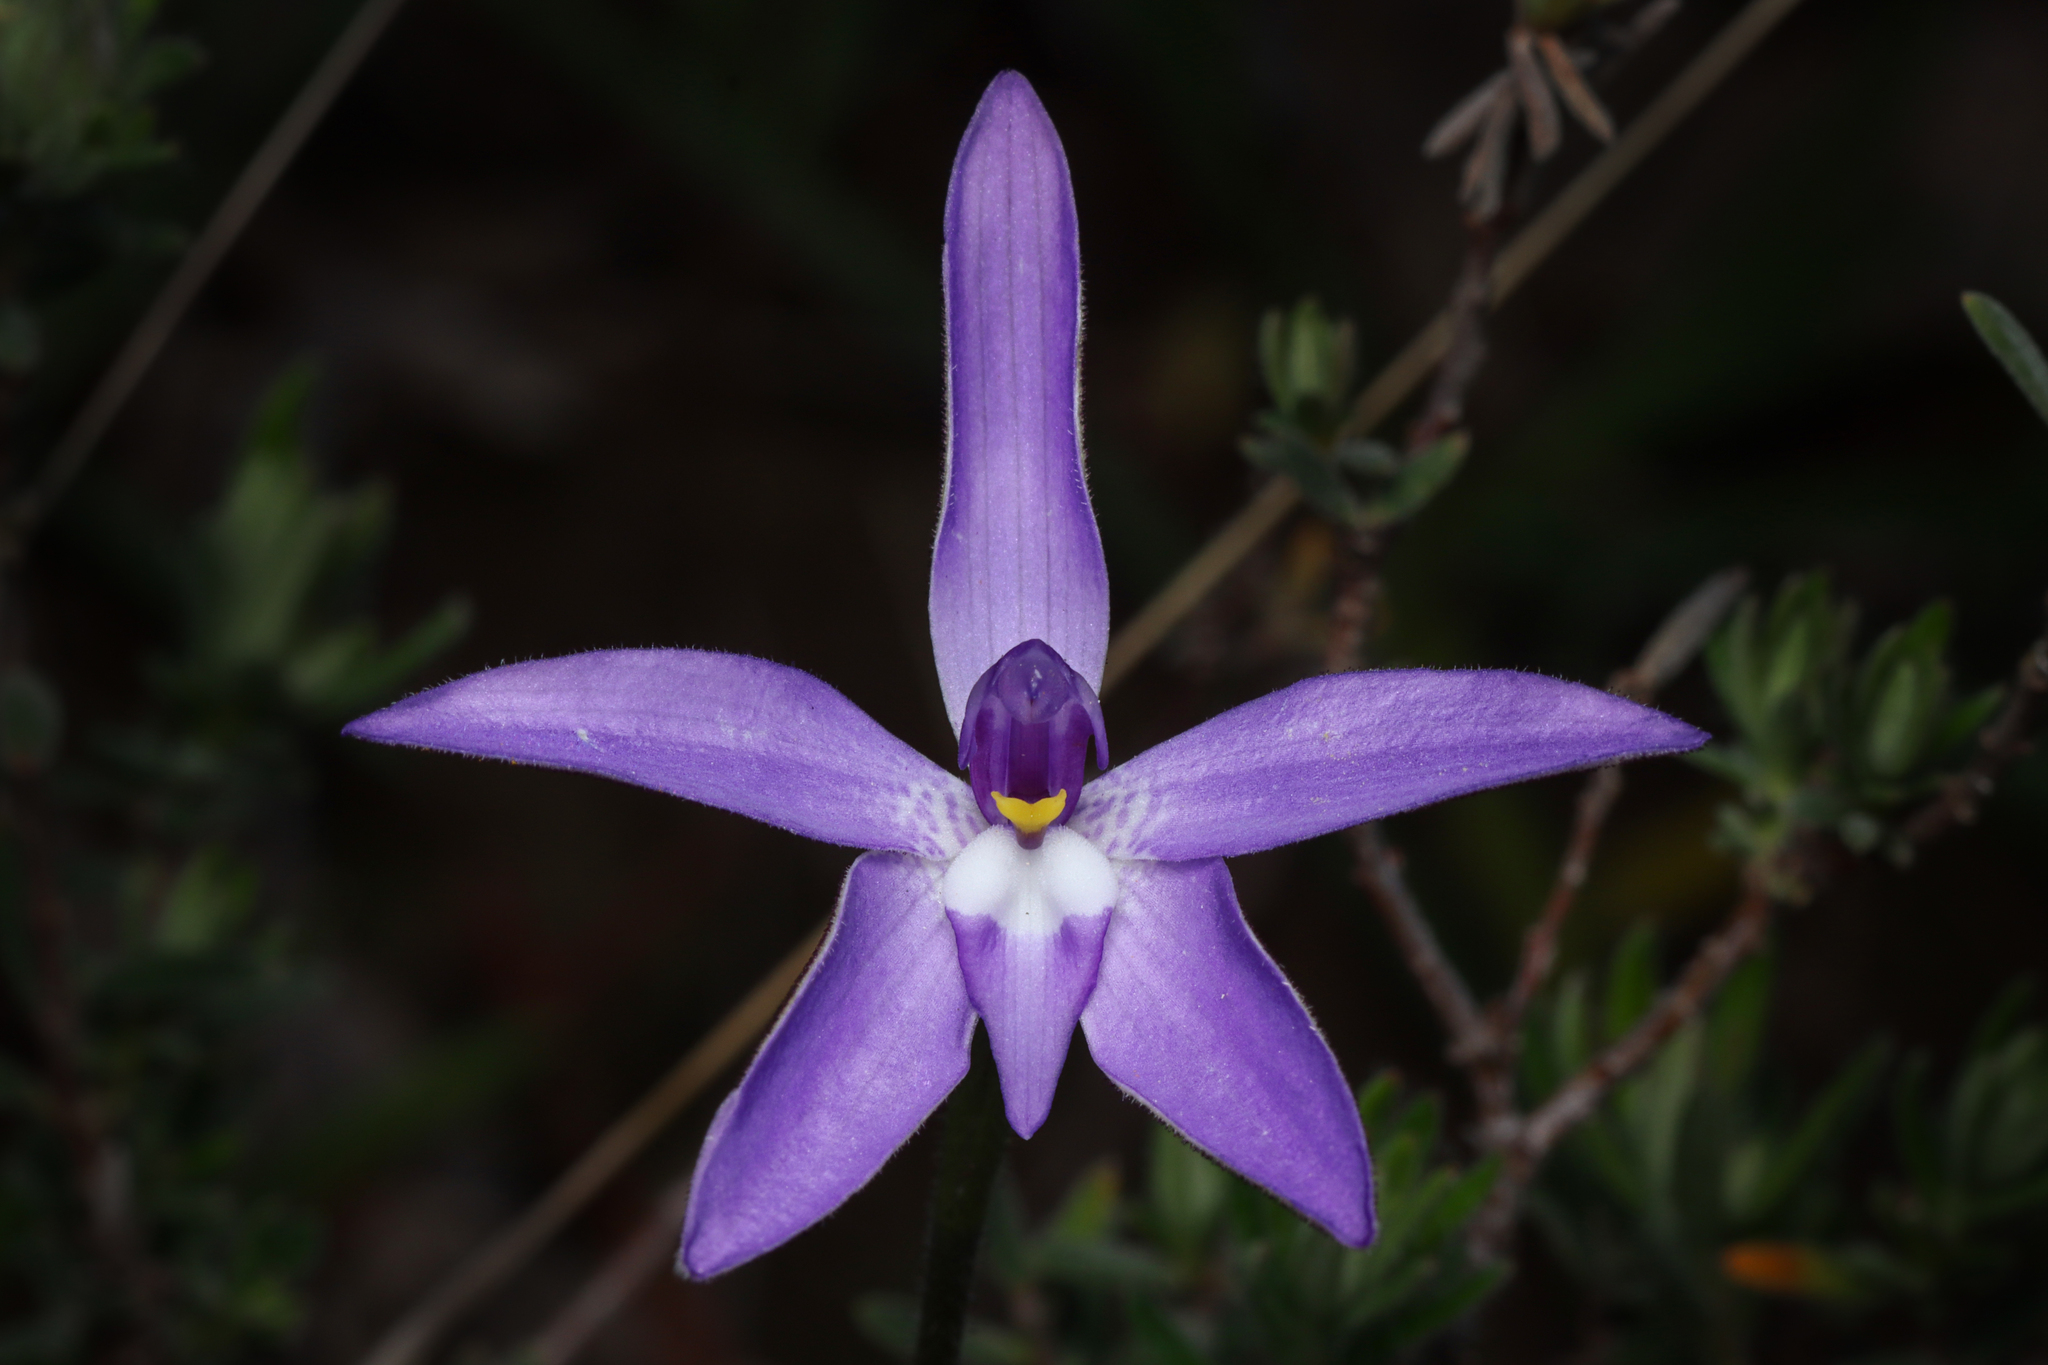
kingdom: Plantae
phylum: Tracheophyta
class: Liliopsida
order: Asparagales
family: Orchidaceae
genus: Caladenia
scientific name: Caladenia major
